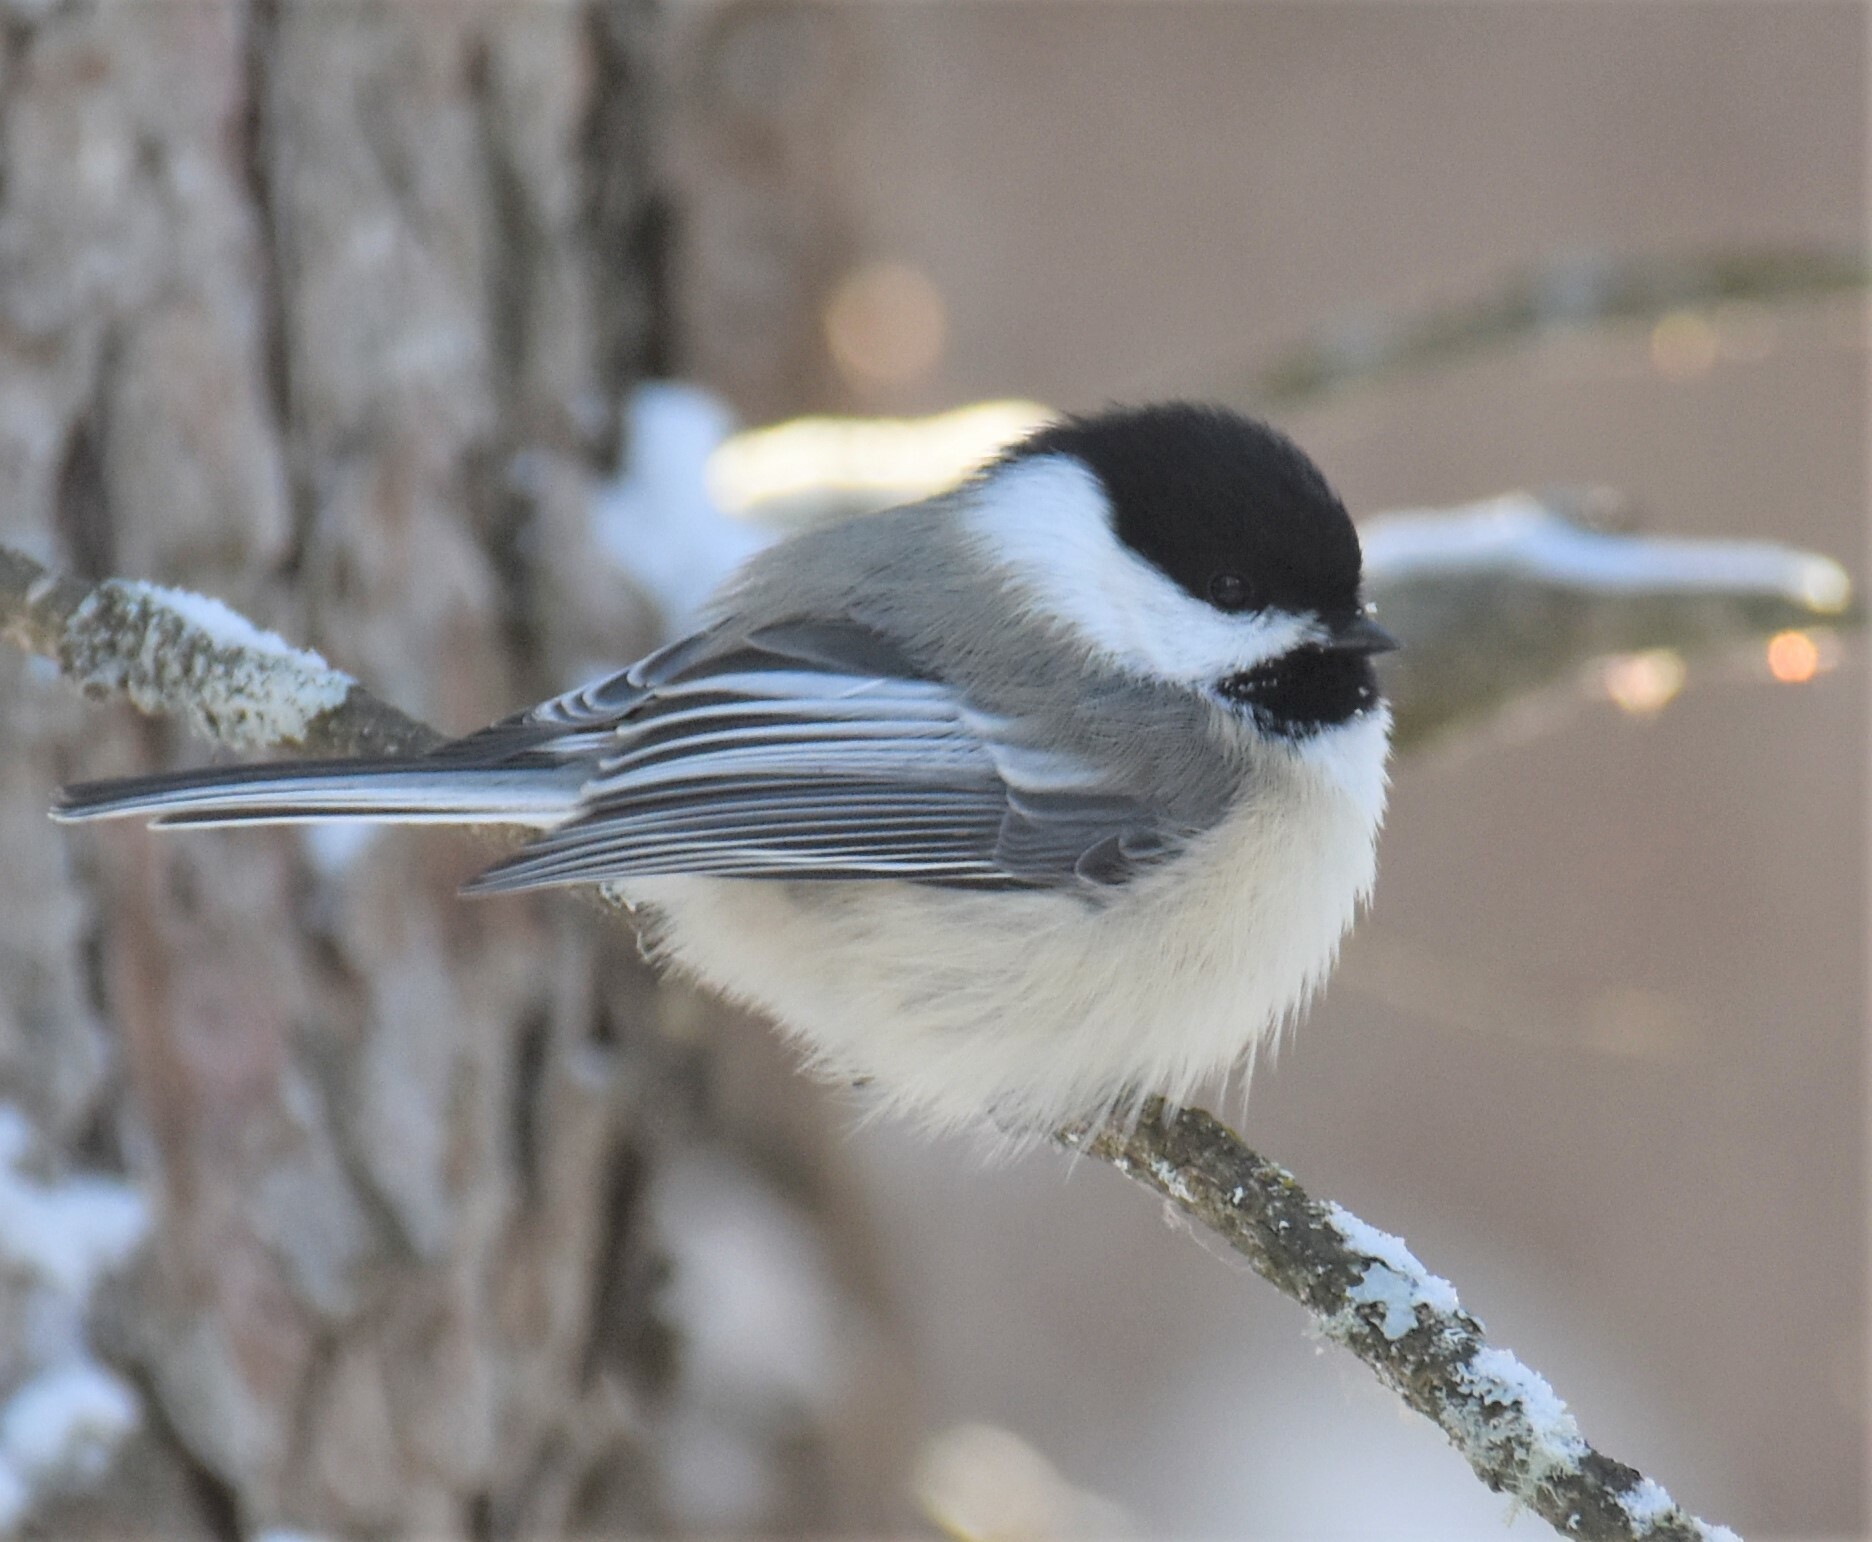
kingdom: Animalia
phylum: Chordata
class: Aves
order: Passeriformes
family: Paridae
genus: Poecile
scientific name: Poecile atricapillus
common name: Black-capped chickadee
